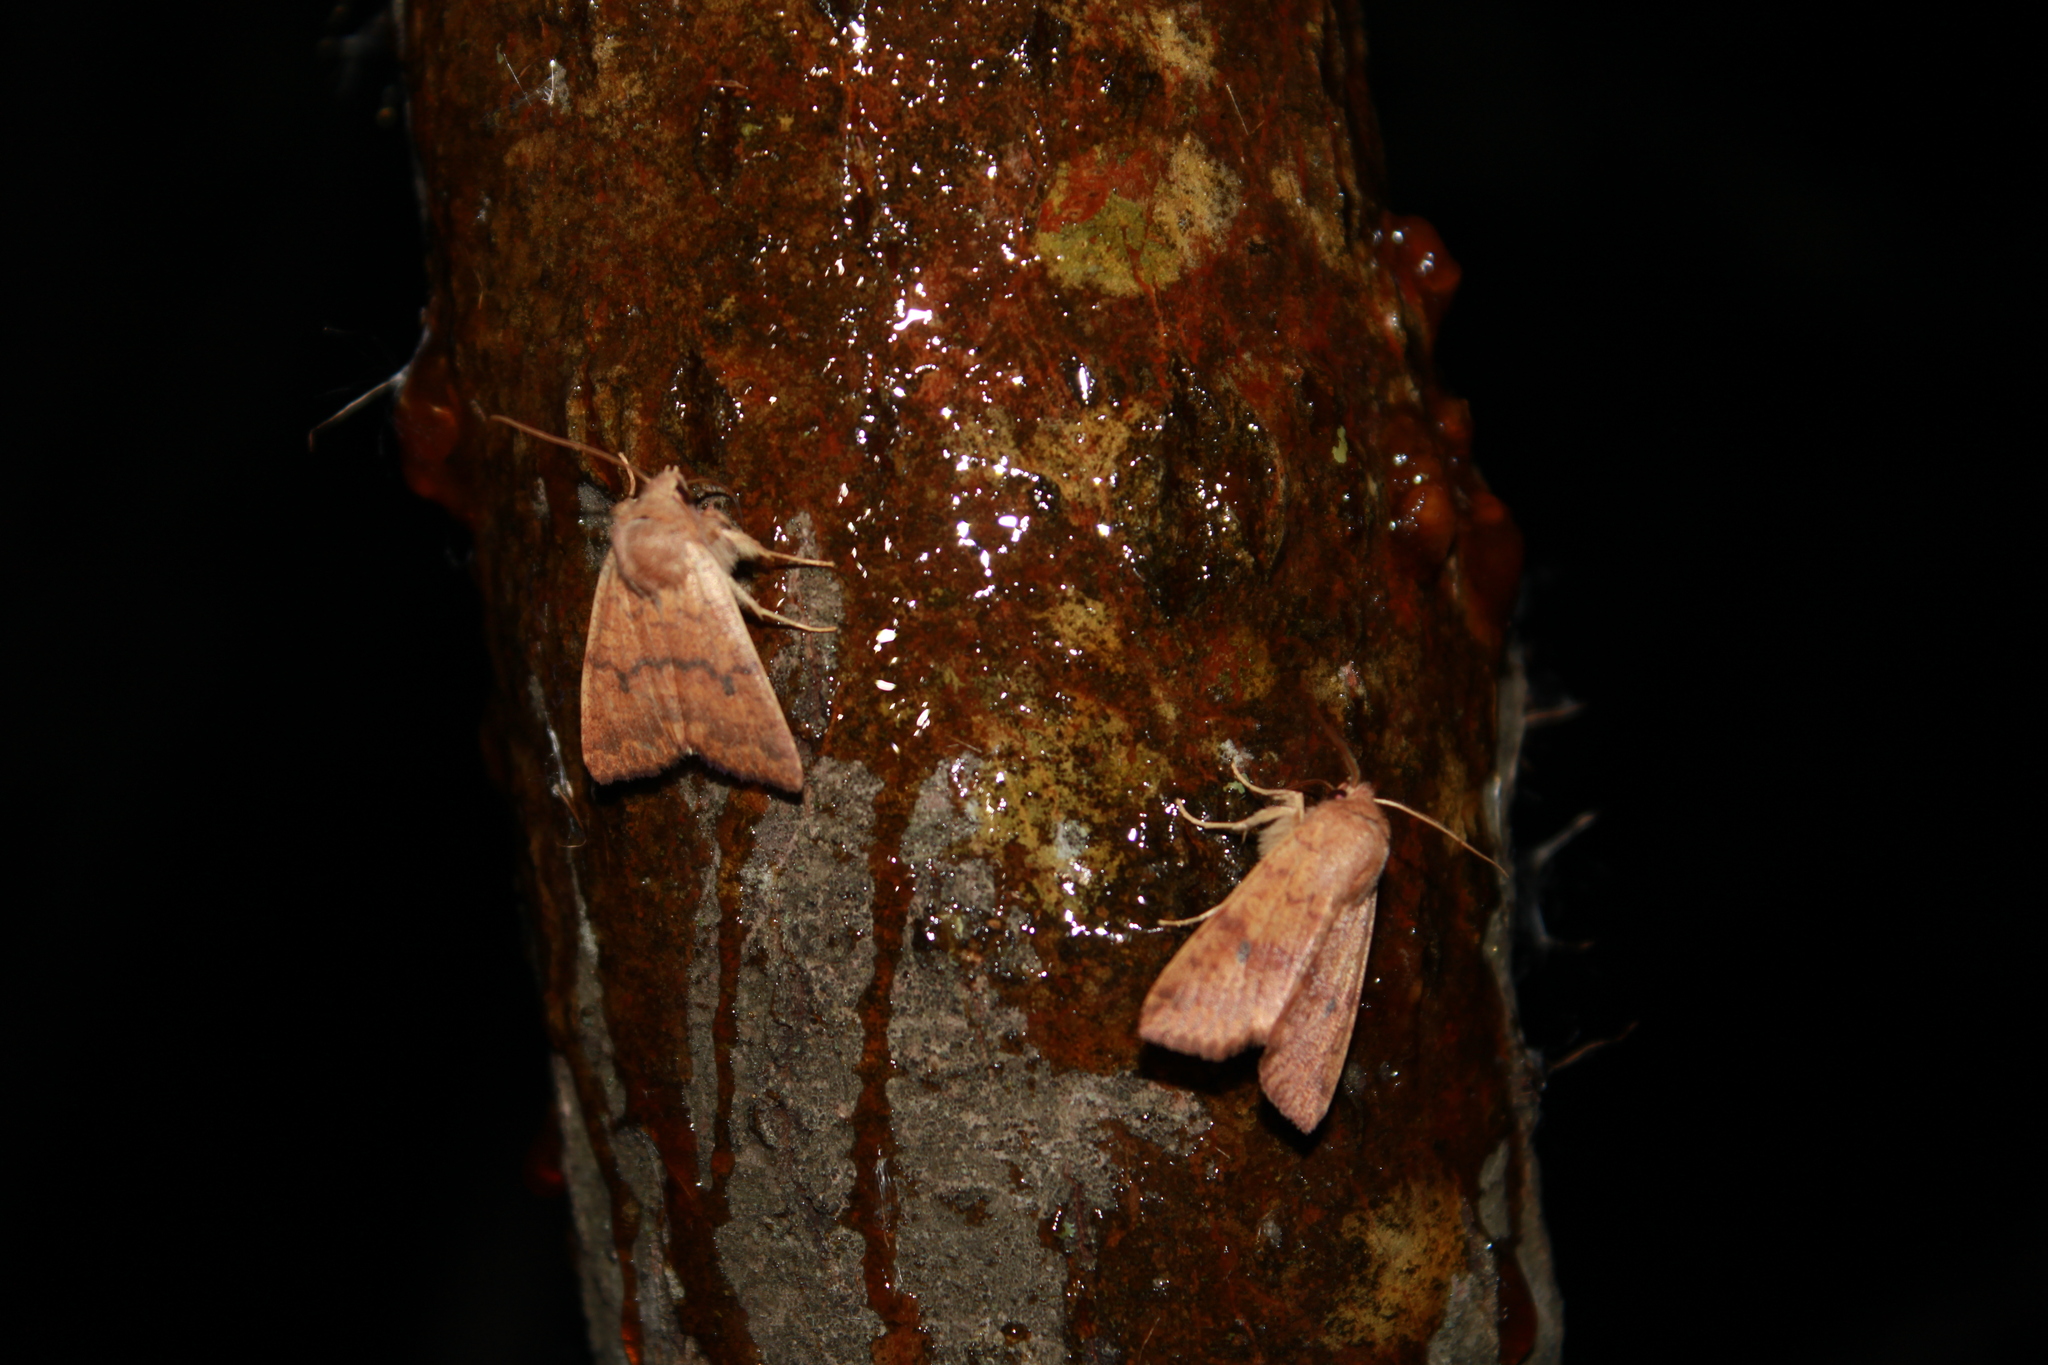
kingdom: Animalia
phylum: Arthropoda
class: Insecta
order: Lepidoptera
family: Noctuidae
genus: Agrochola
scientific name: Agrochola bicolorago
